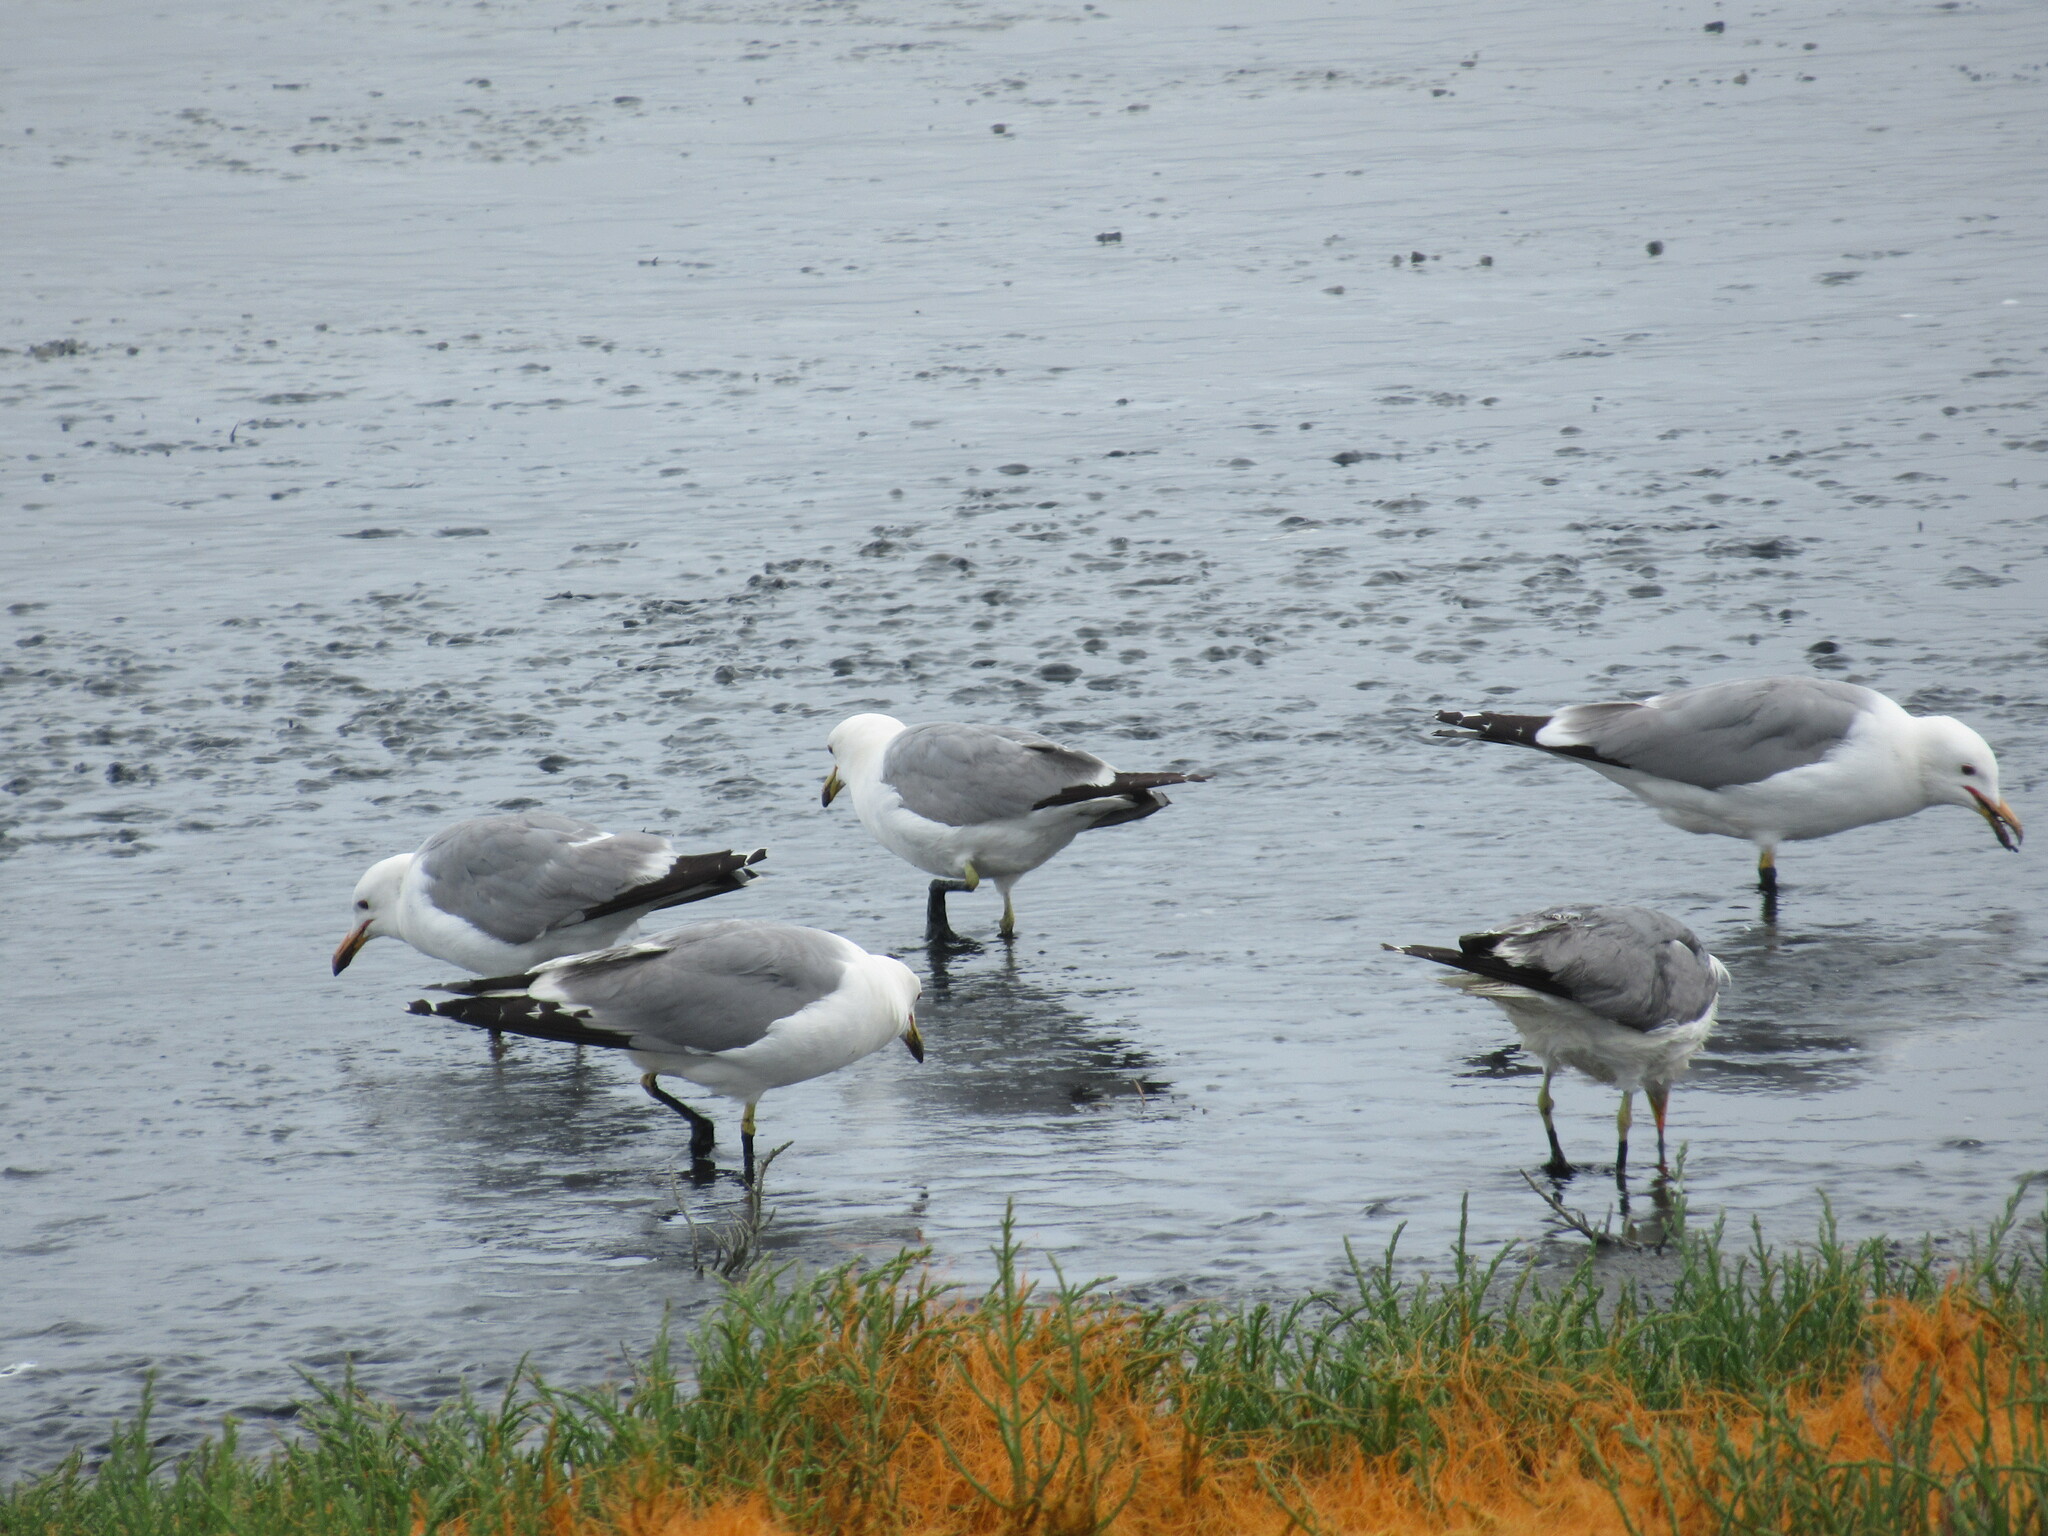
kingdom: Animalia
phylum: Chordata
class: Aves
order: Charadriiformes
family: Laridae
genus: Larus
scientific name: Larus californicus
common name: California gull
